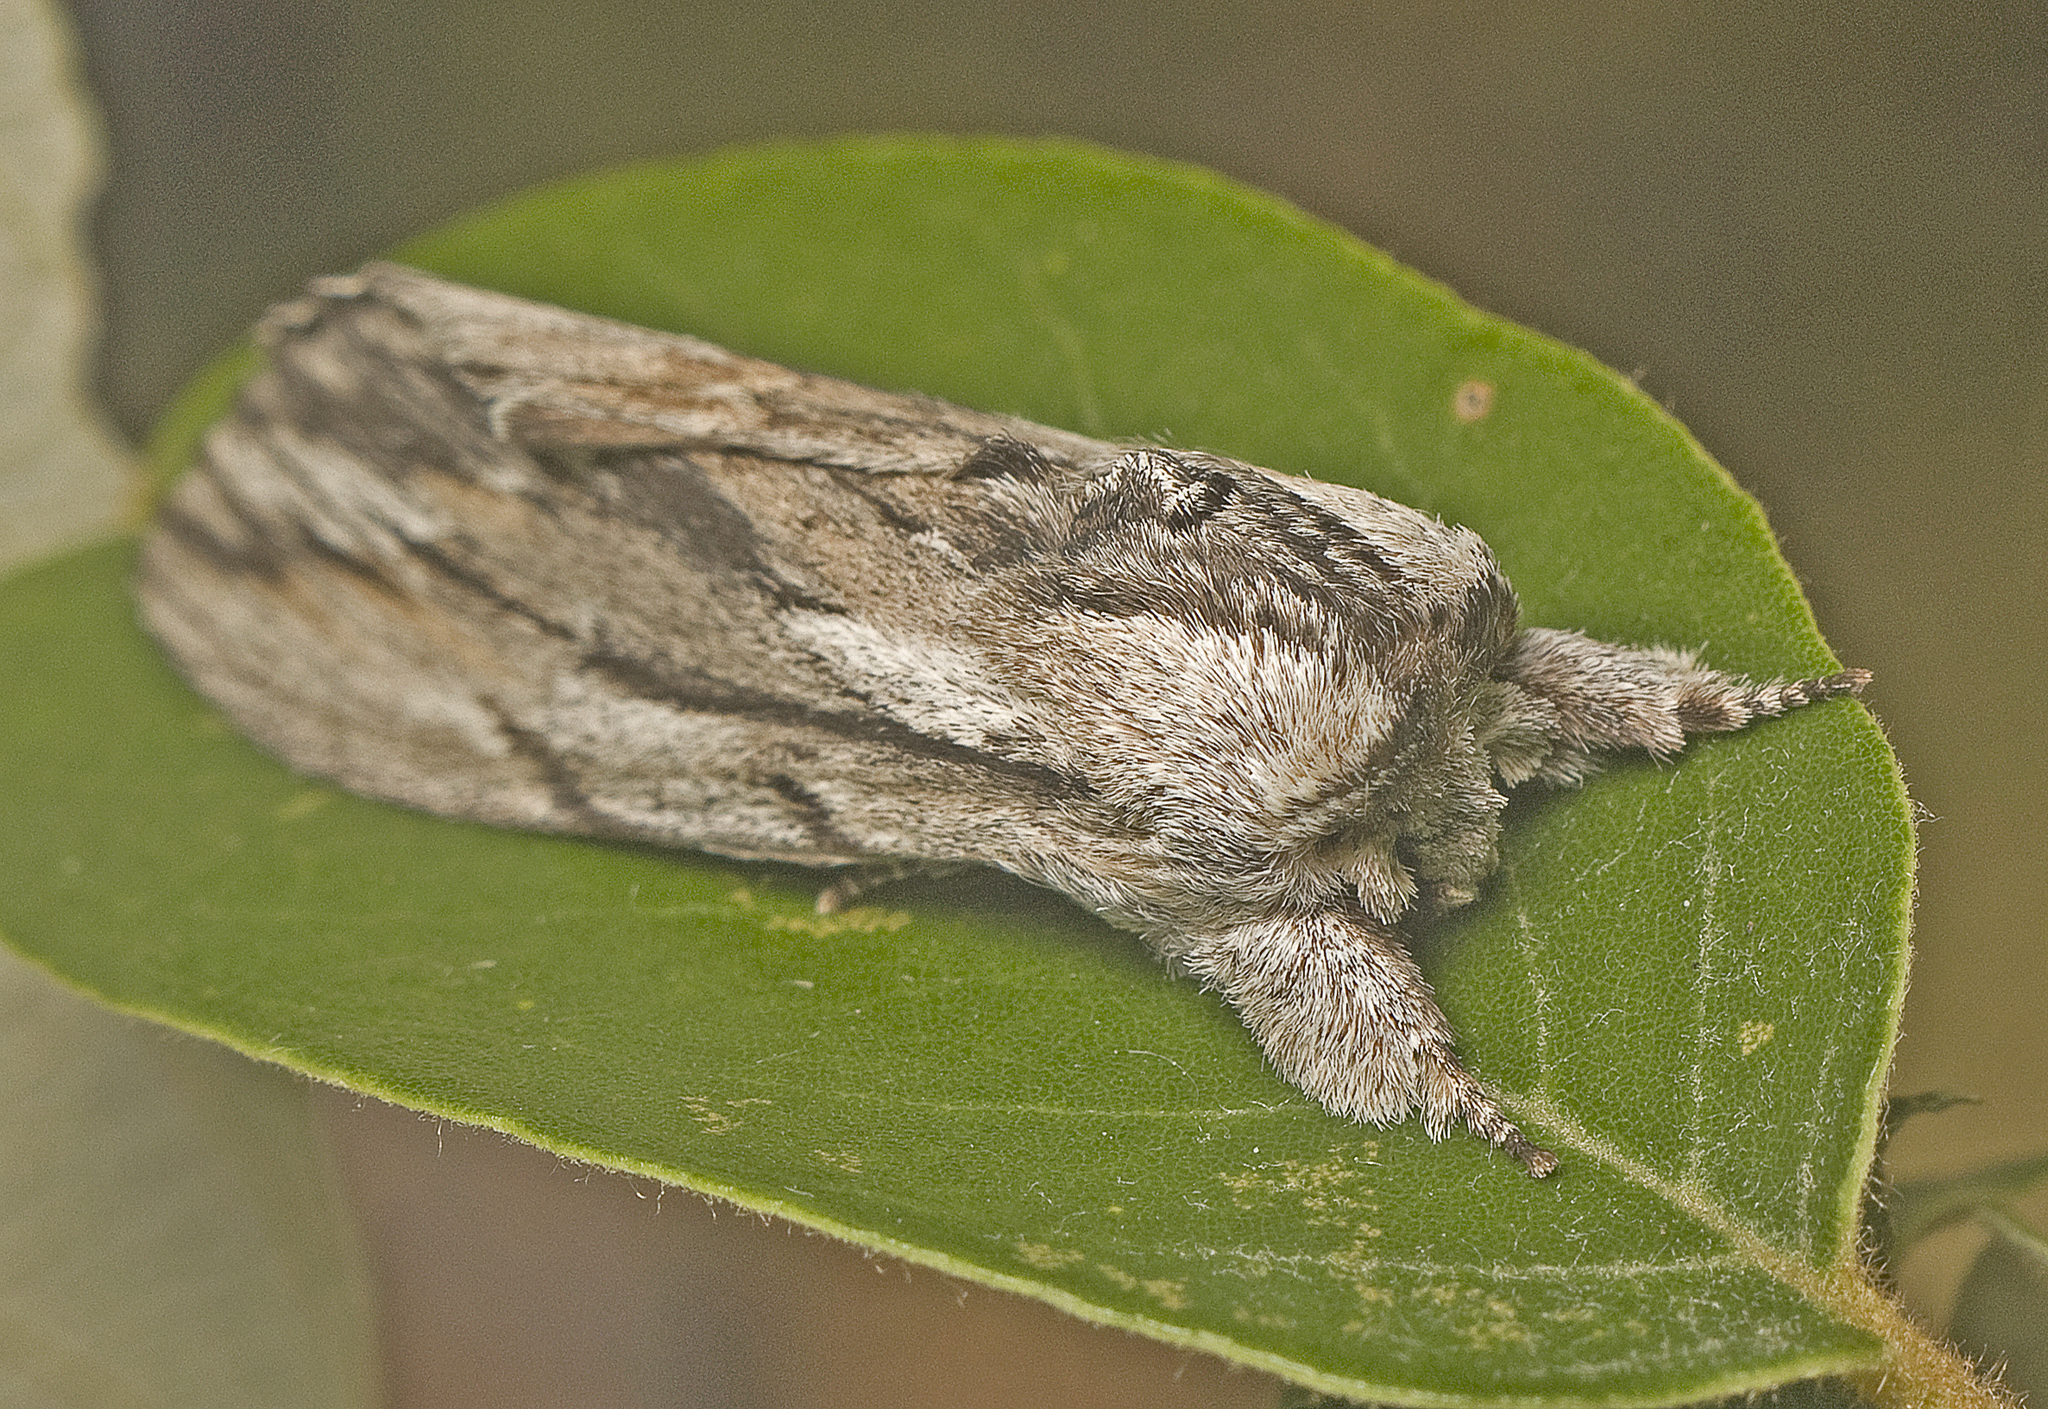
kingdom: Animalia
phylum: Arthropoda
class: Insecta
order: Lepidoptera
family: Notodontidae
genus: Destolmia
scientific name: Destolmia lineata
